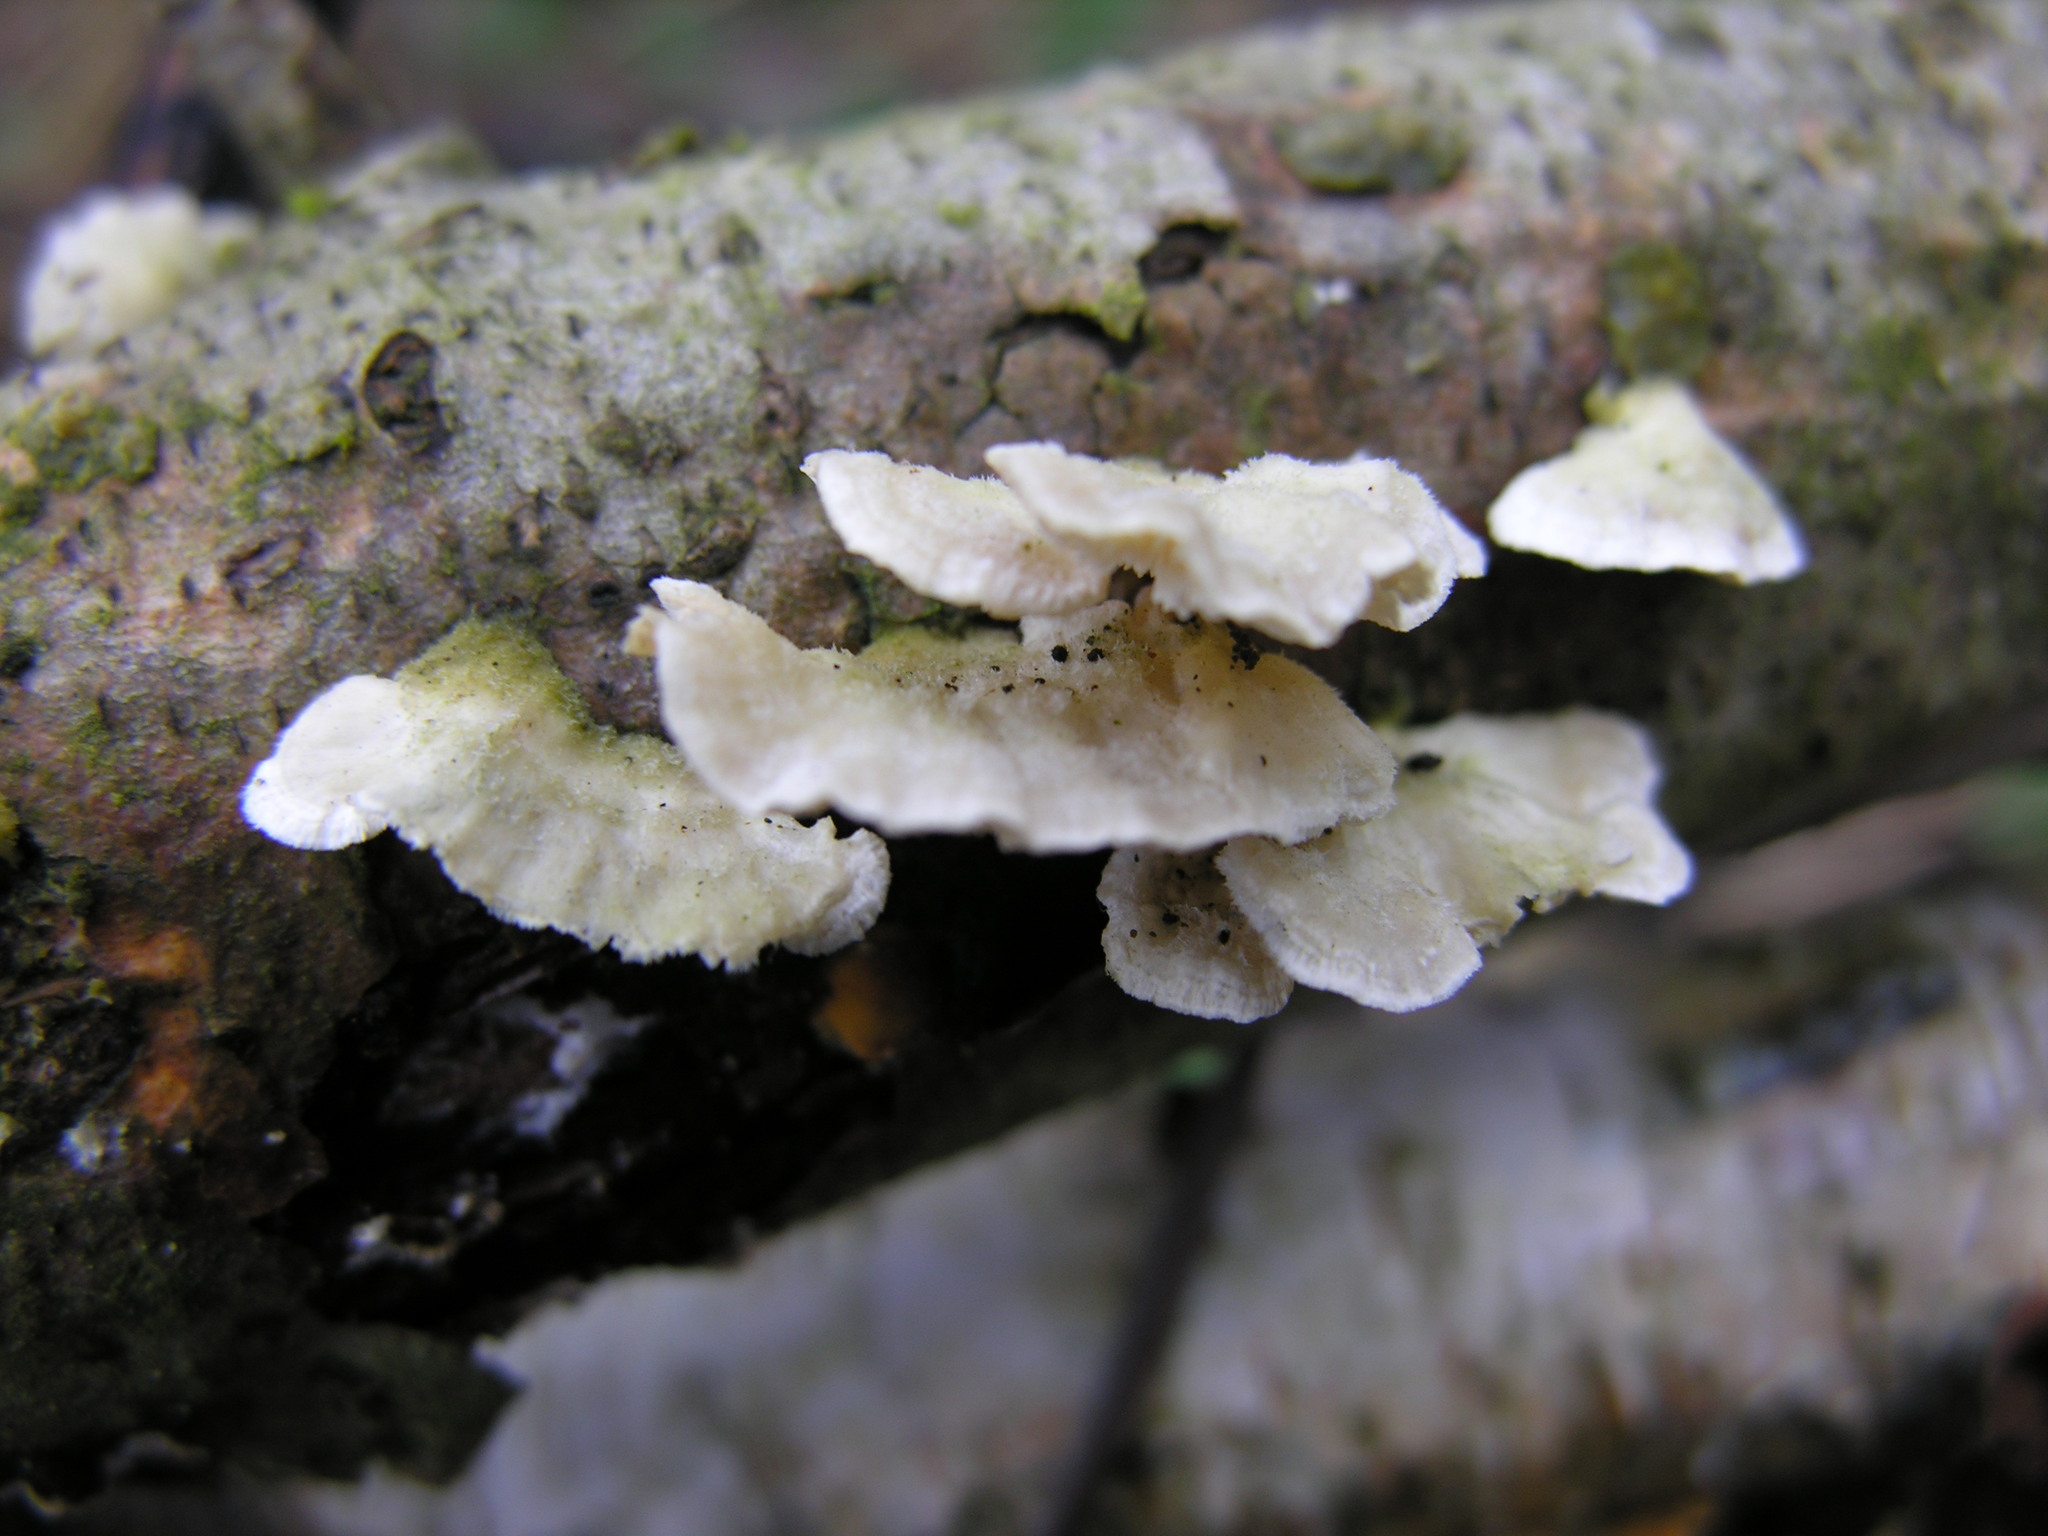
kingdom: Fungi
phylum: Basidiomycota
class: Agaricomycetes
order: Polyporales
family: Irpicaceae
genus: Irpex
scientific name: Irpex lacteus
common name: Milk-white toothed polypore
